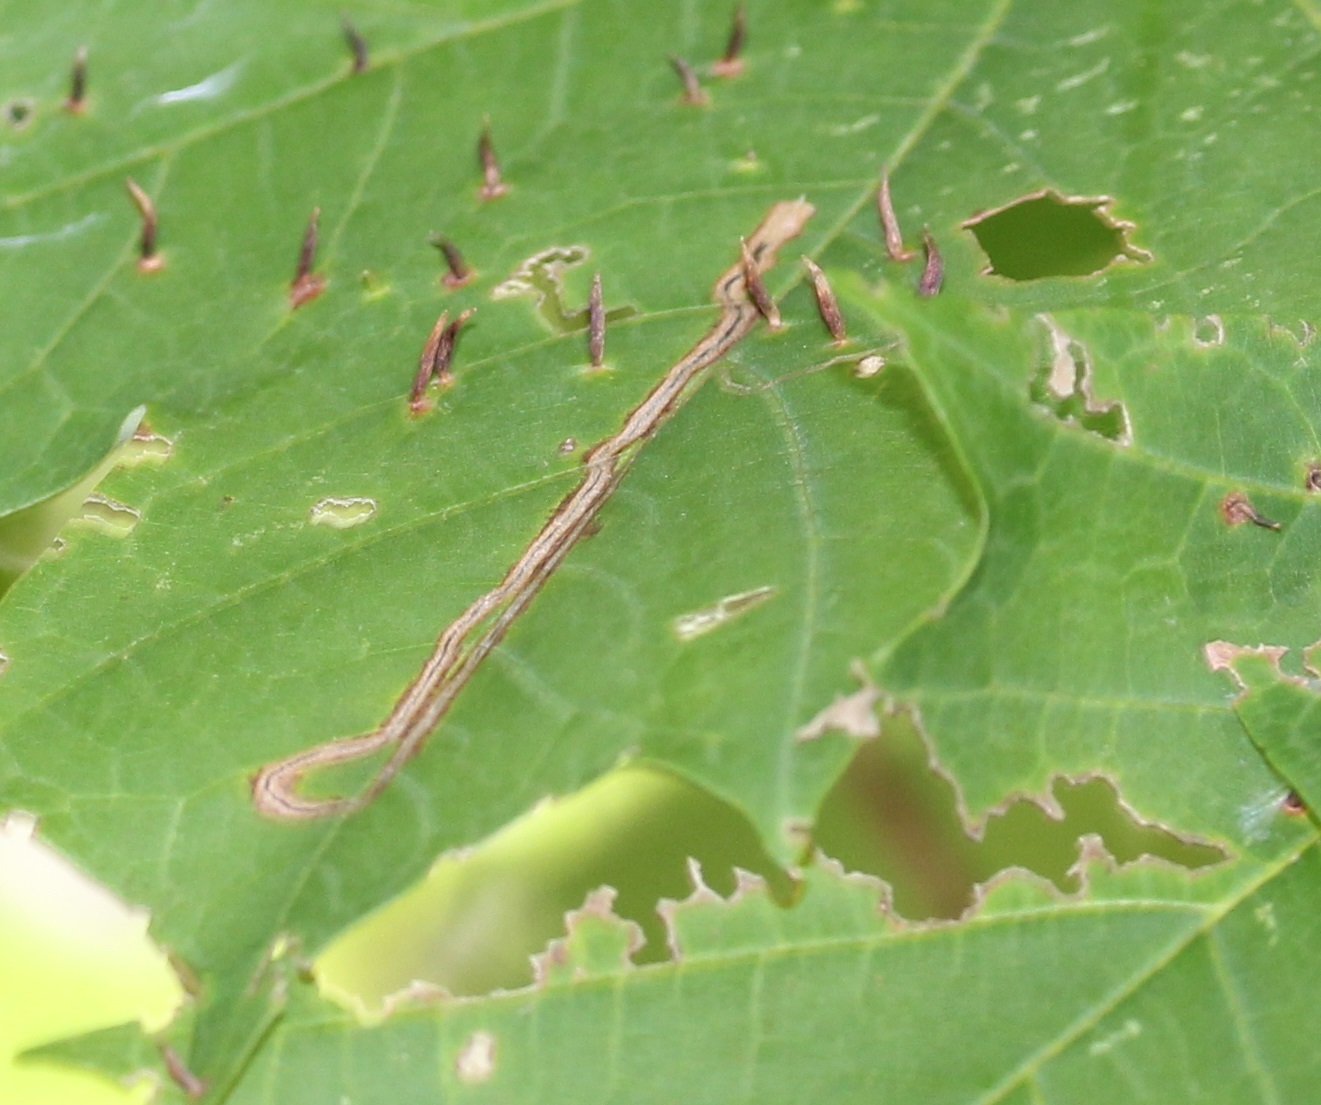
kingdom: Animalia
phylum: Arthropoda
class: Insecta
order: Lepidoptera
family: Nepticulidae
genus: Glaucolepis
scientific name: Glaucolepis saccharella
